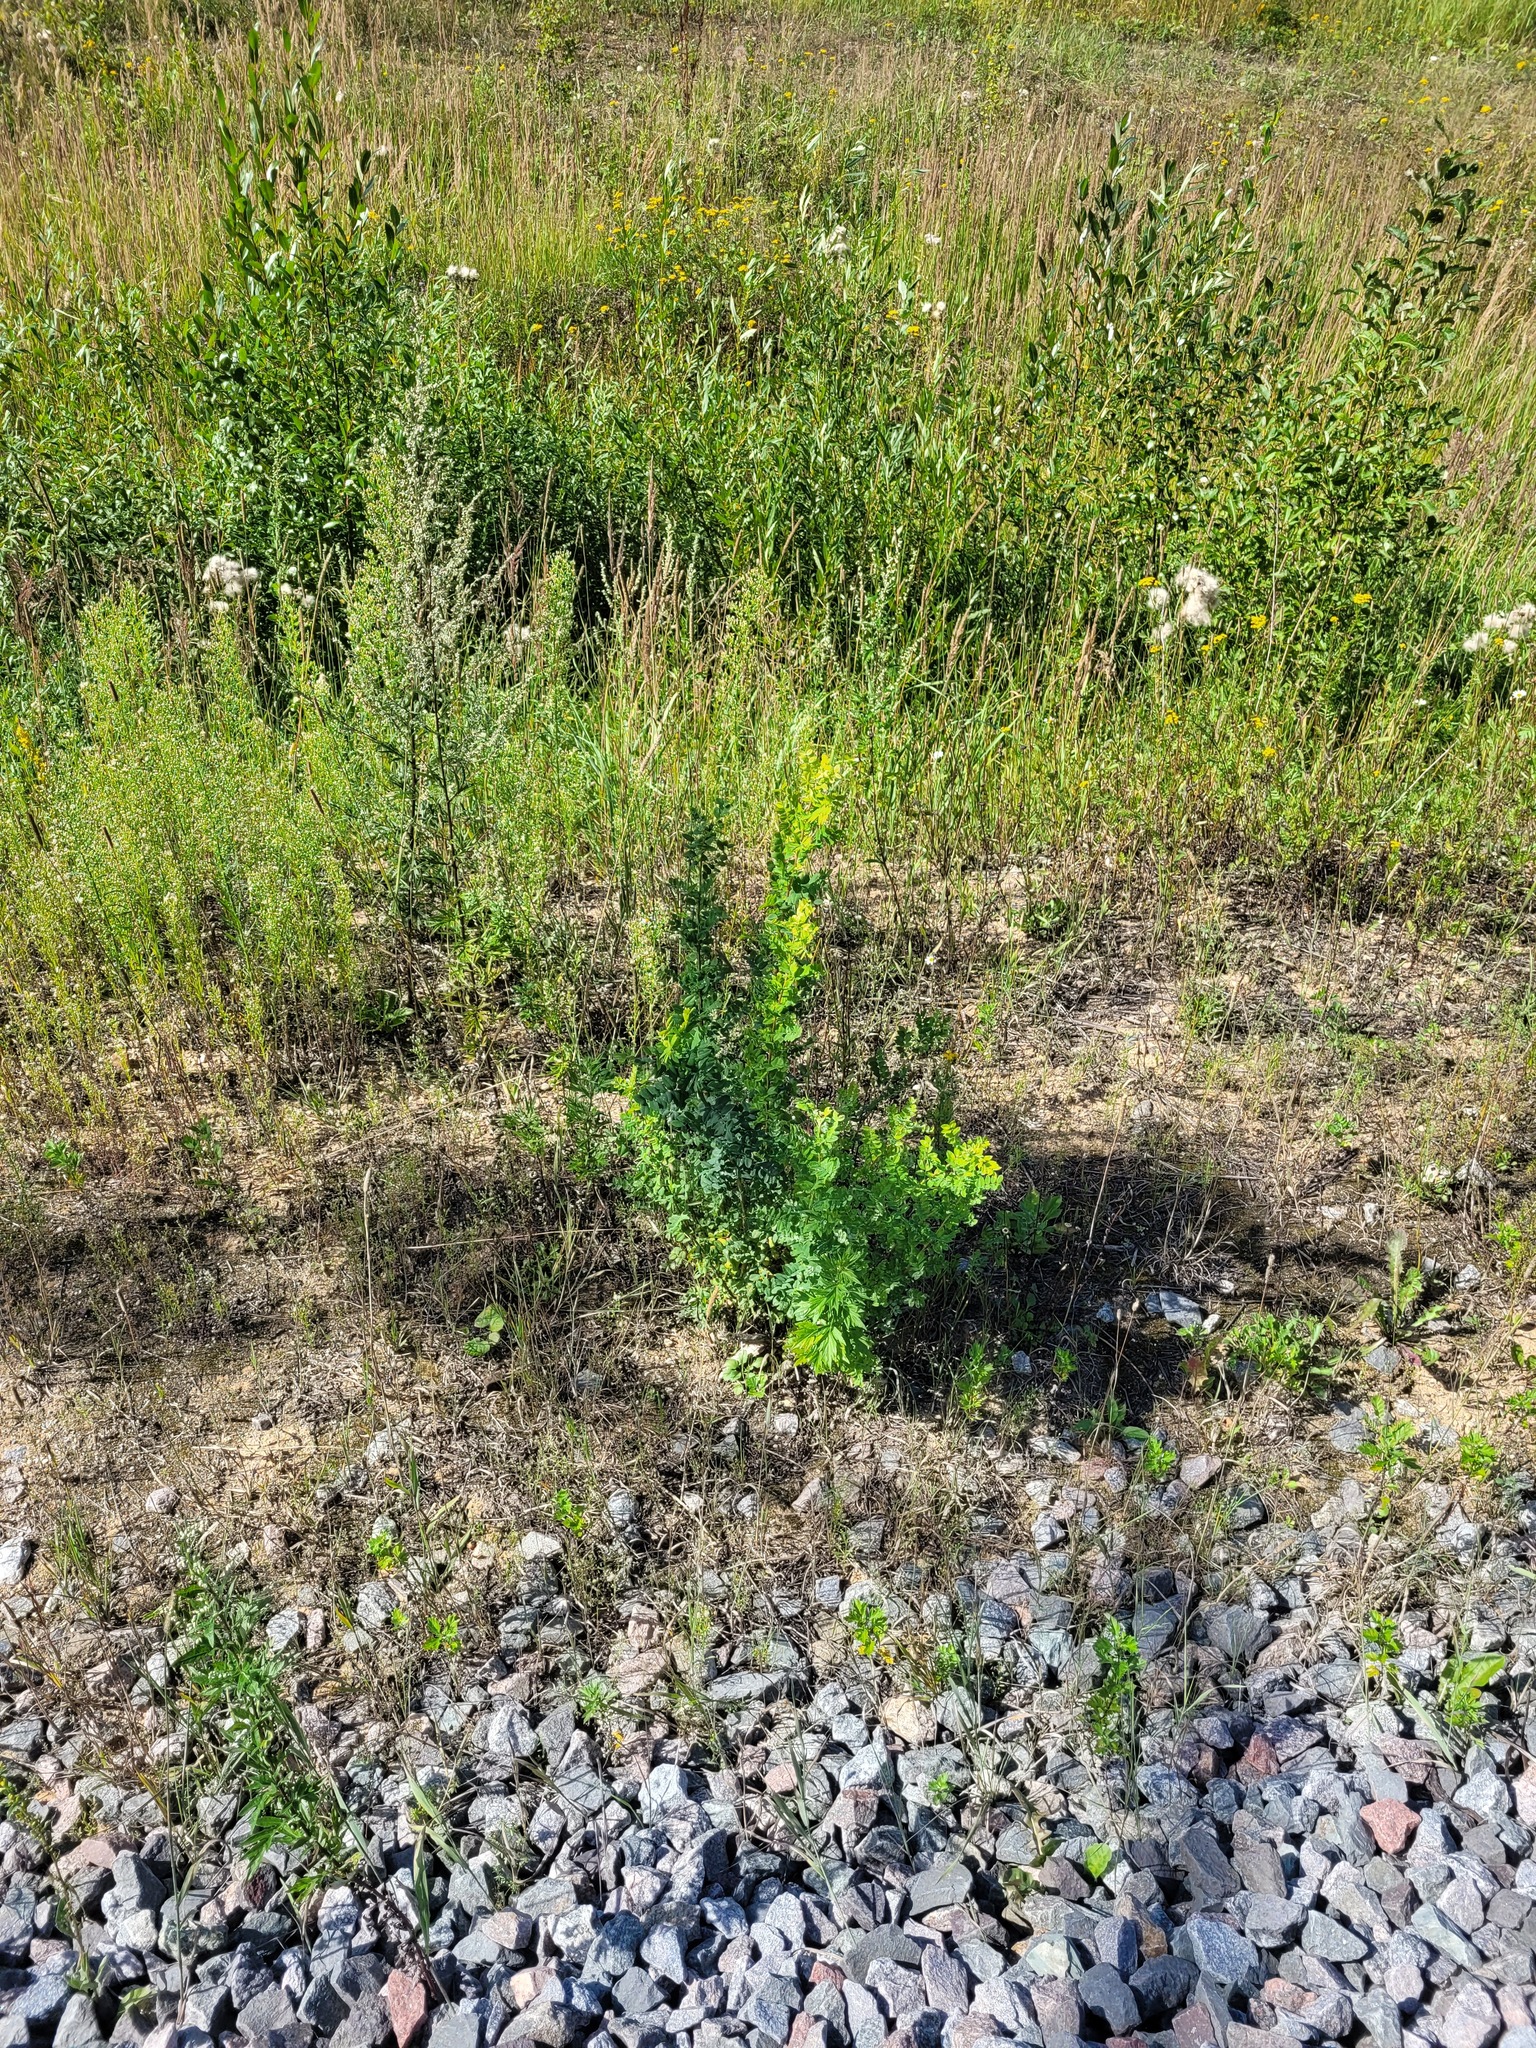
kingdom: Plantae
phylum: Tracheophyta
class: Magnoliopsida
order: Fabales
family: Fabaceae
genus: Caragana
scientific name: Caragana arborescens
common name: Siberian peashrub
